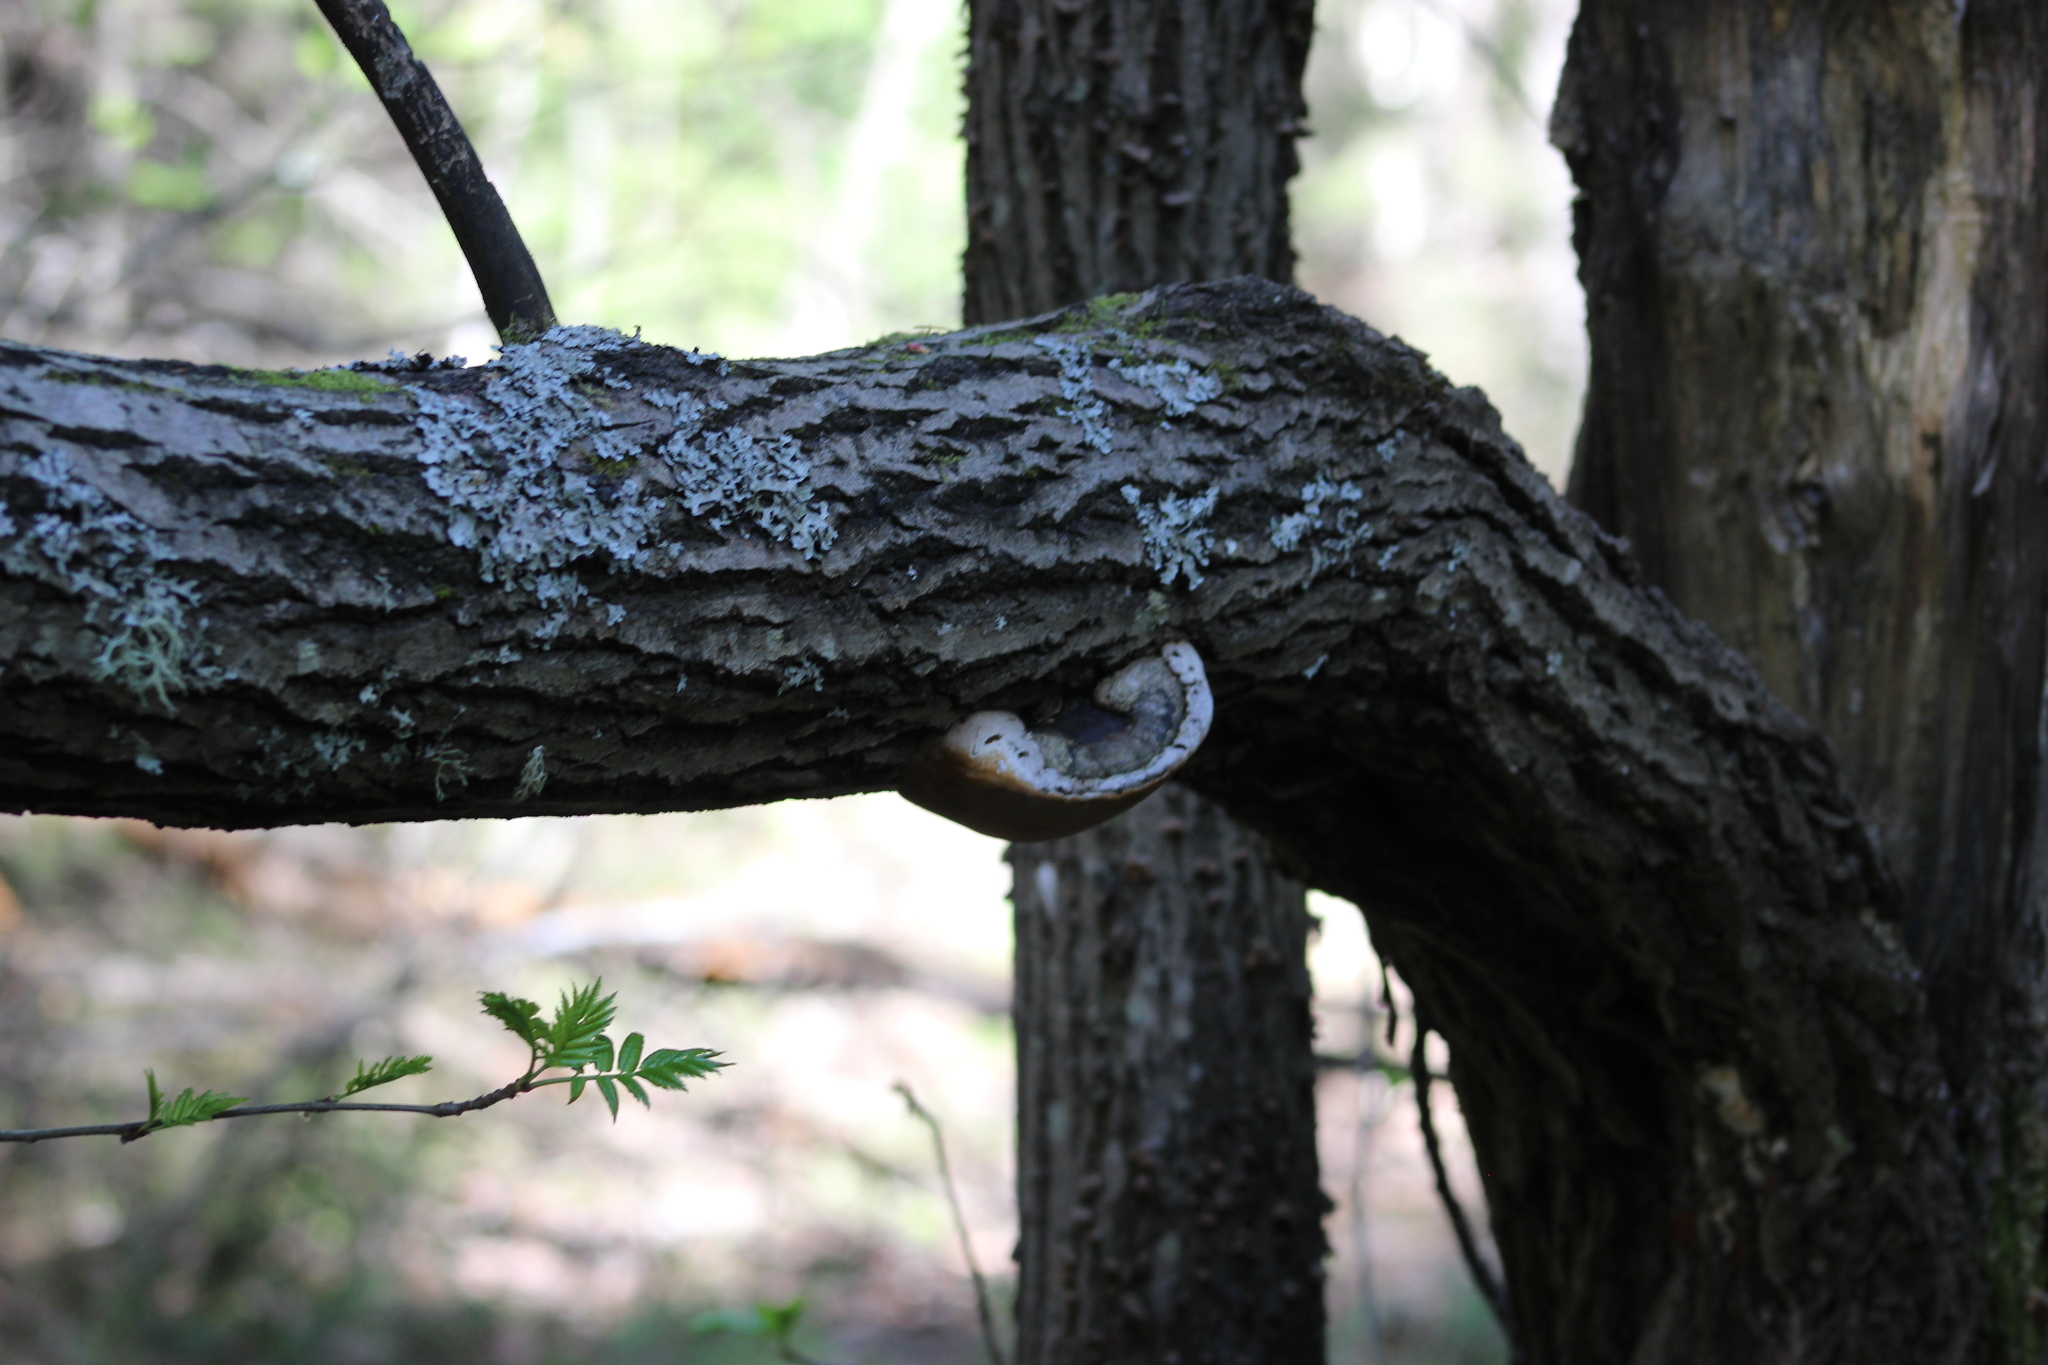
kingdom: Fungi
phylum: Basidiomycota
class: Agaricomycetes
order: Hymenochaetales
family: Hymenochaetaceae
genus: Phellinus
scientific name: Phellinus igniarius
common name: Willow bracket
